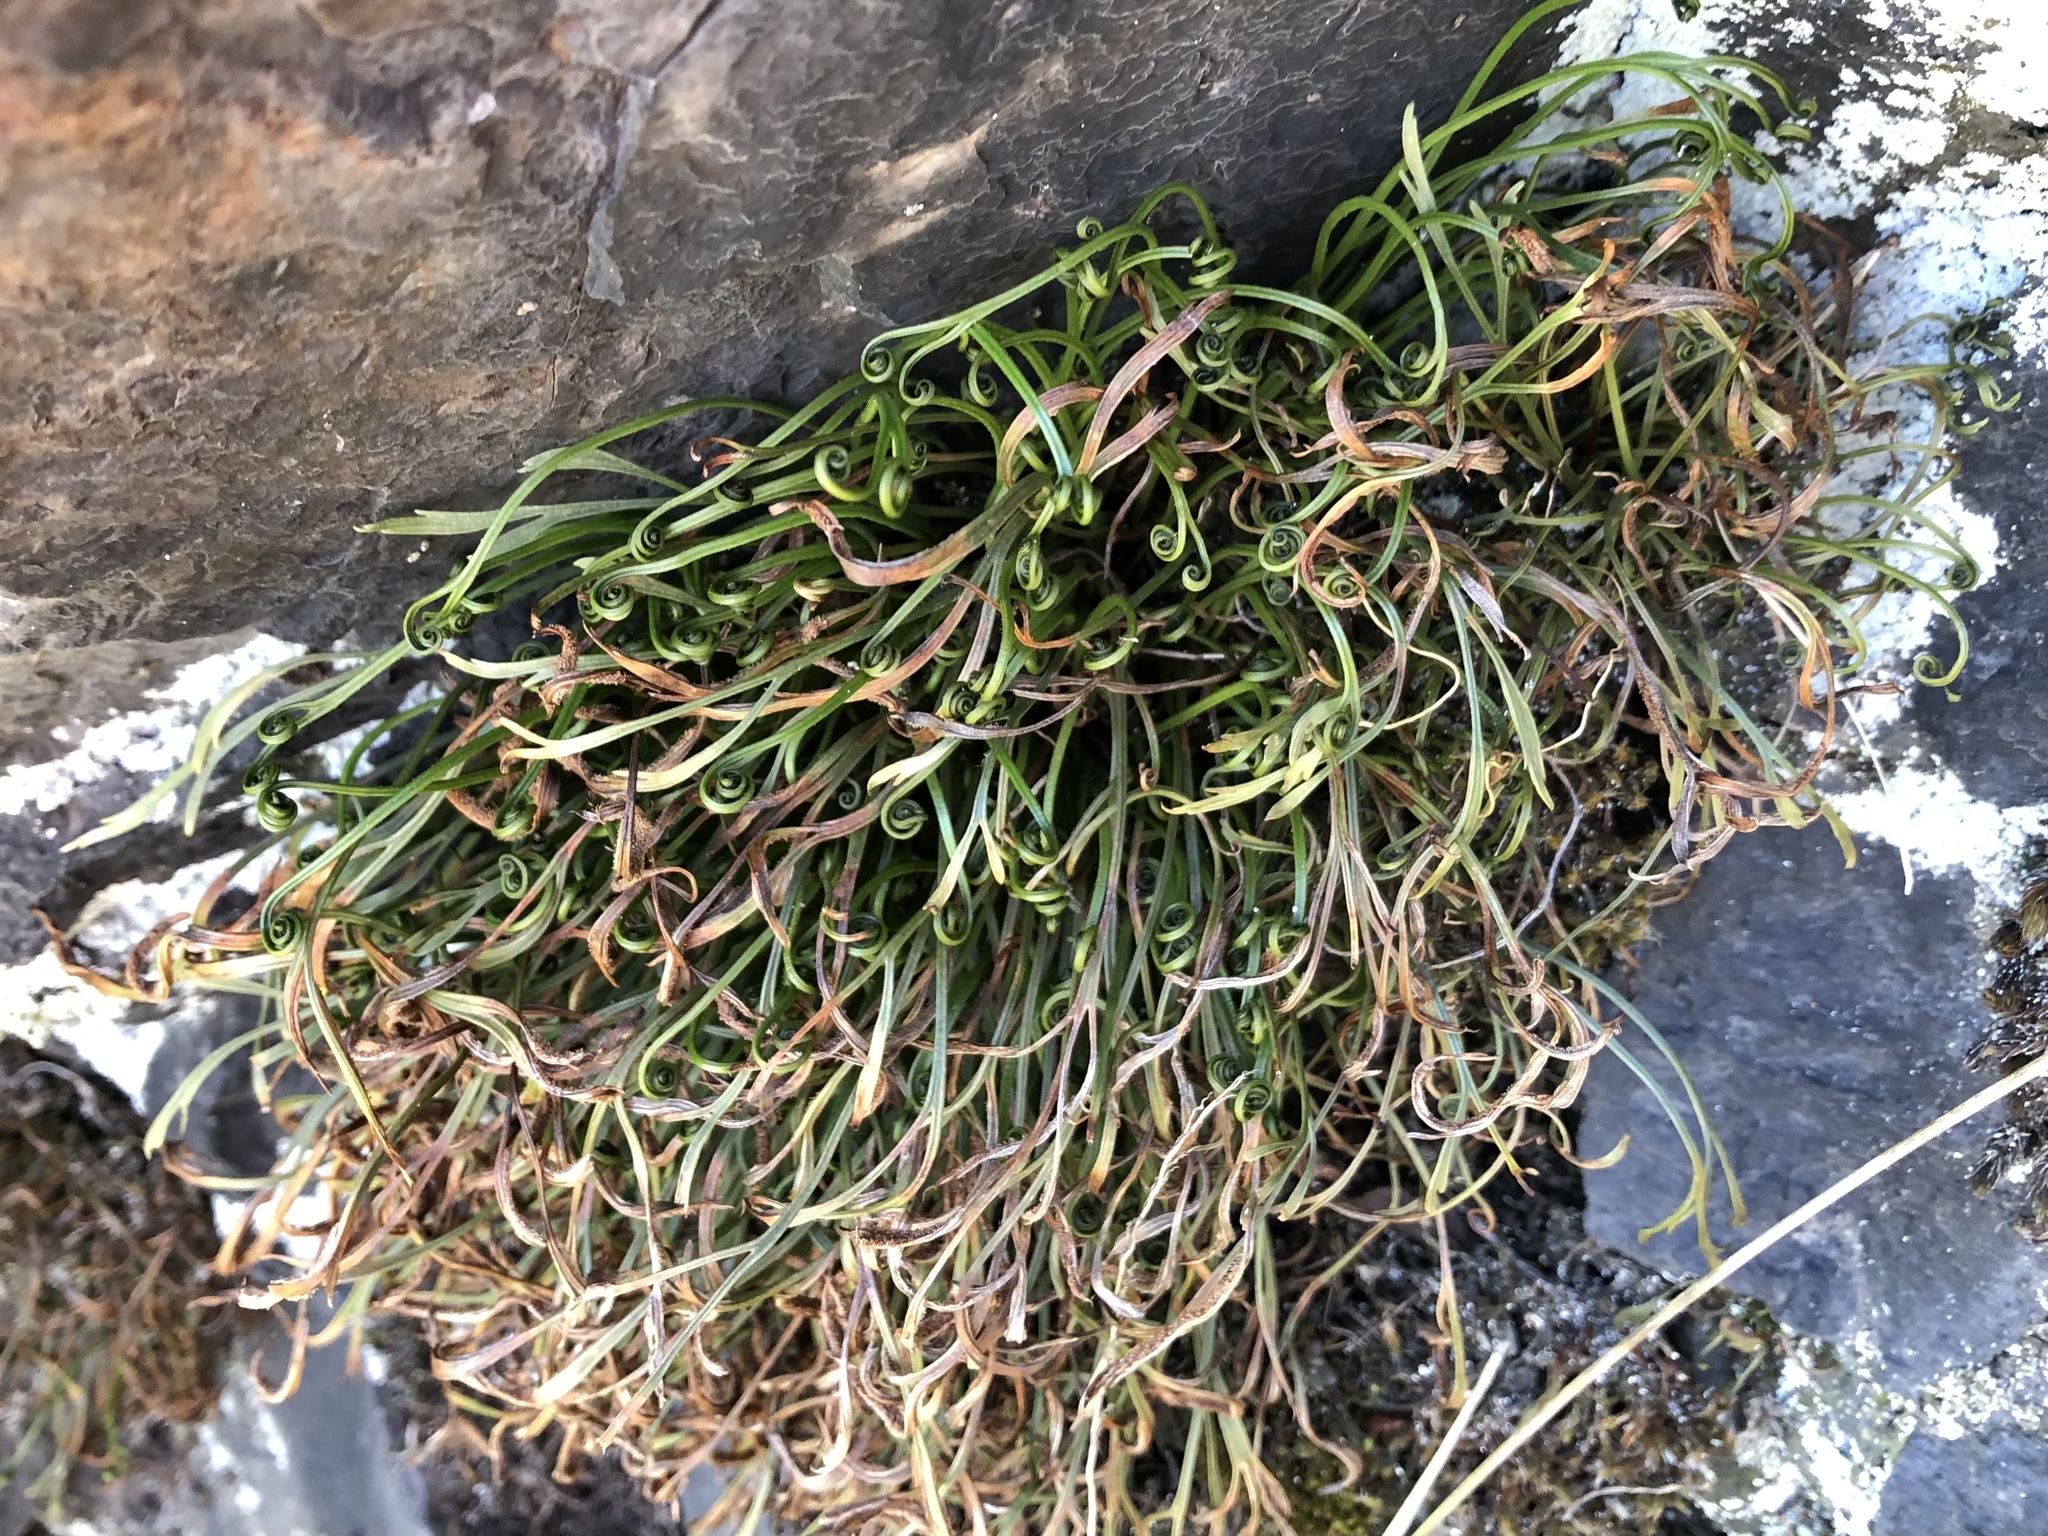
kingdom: Plantae
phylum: Tracheophyta
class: Polypodiopsida
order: Polypodiales
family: Aspleniaceae
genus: Asplenium
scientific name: Asplenium septentrionale
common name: Forked spleenwort
